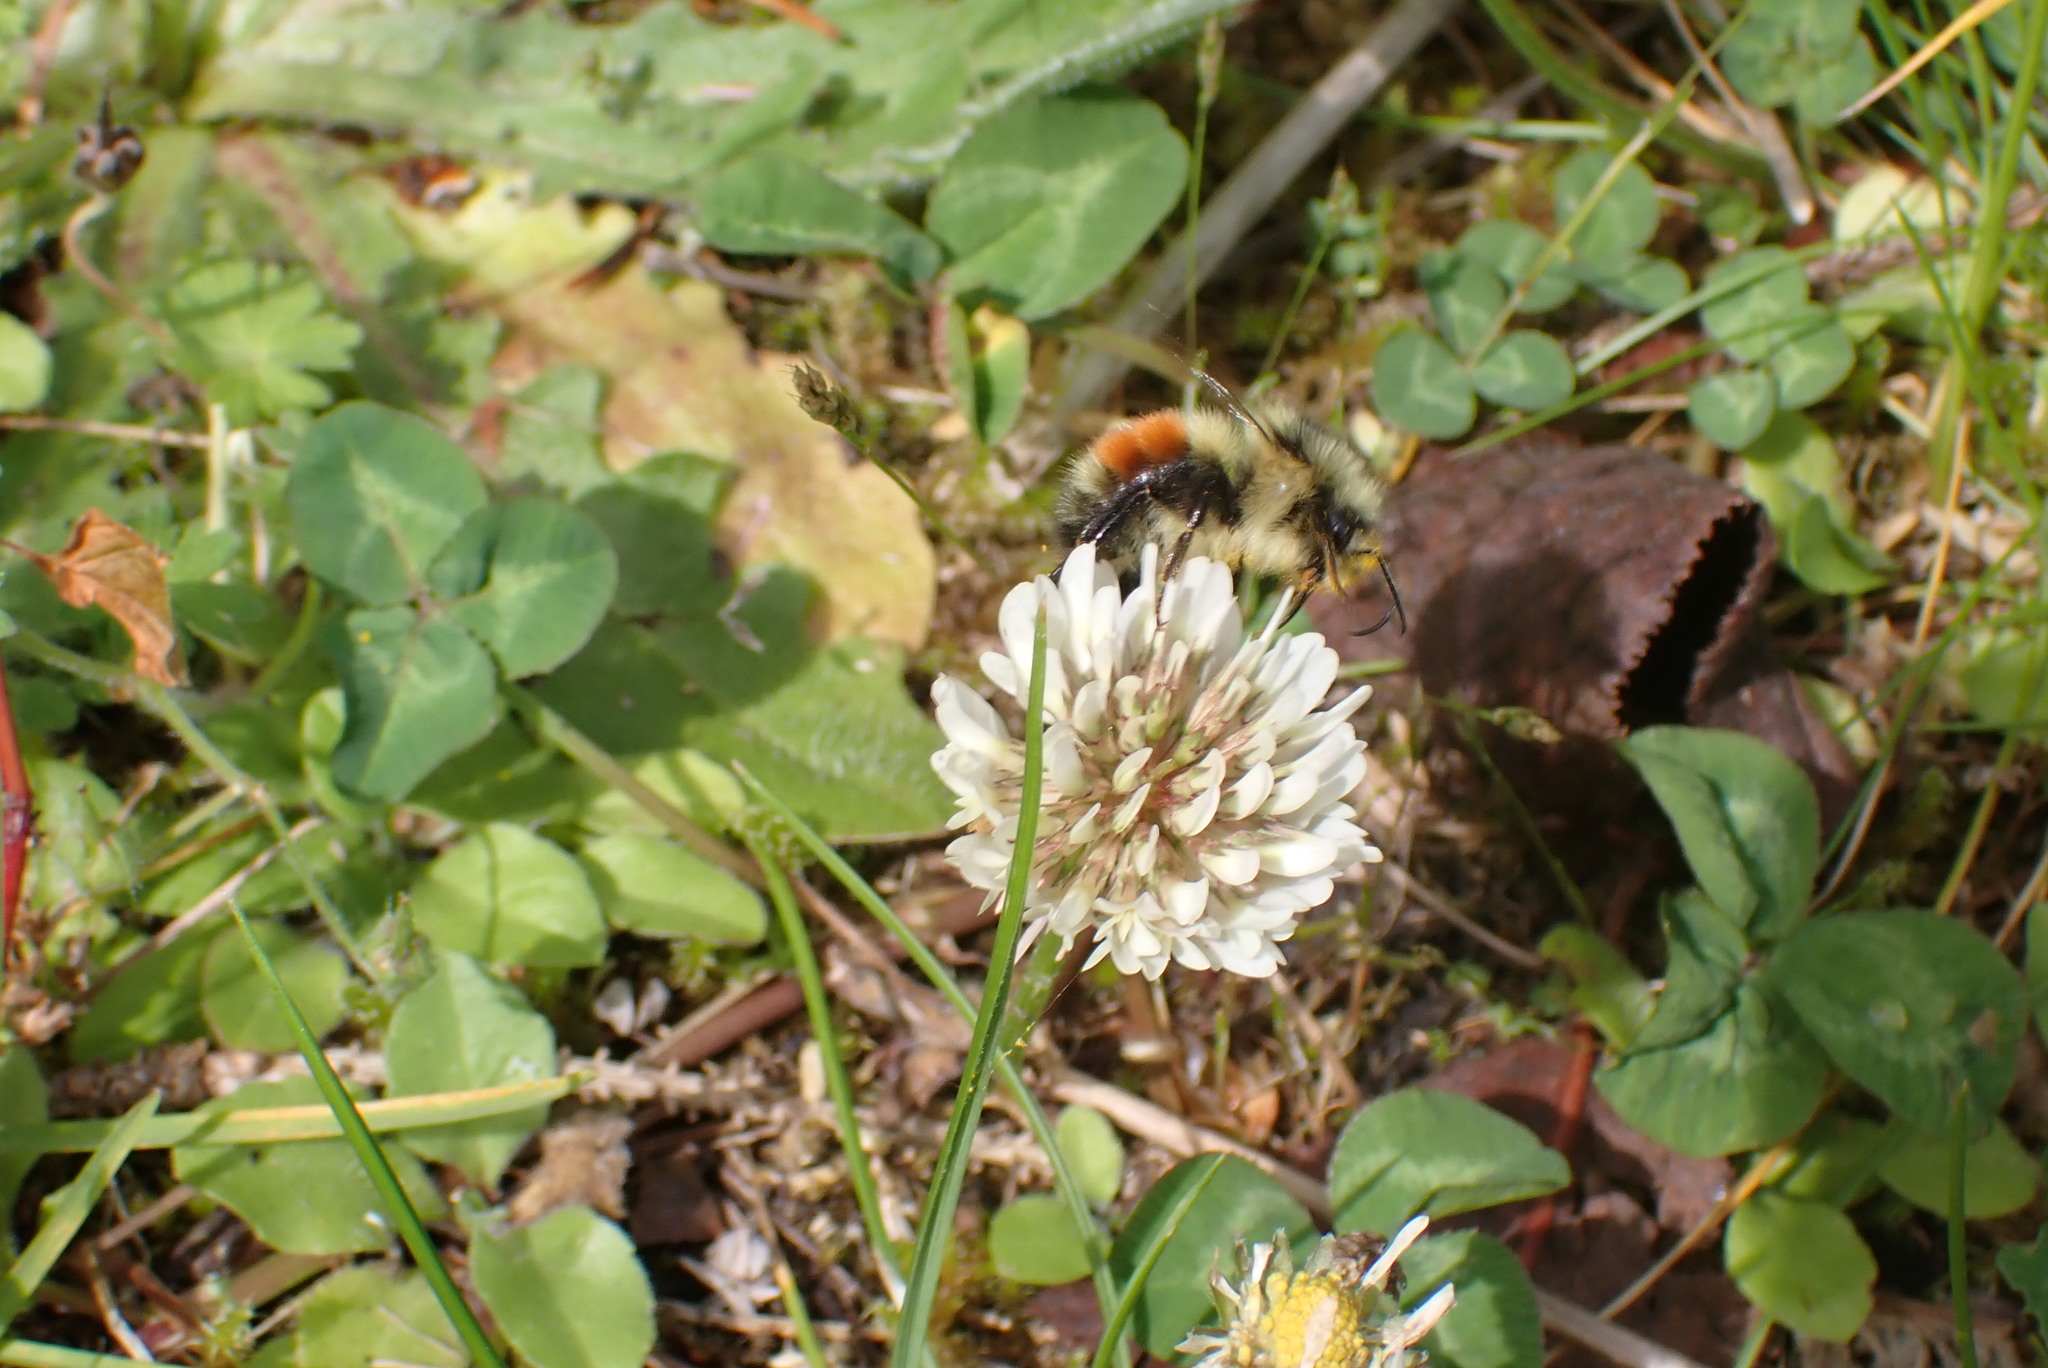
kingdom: Animalia
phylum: Arthropoda
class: Insecta
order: Hymenoptera
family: Apidae
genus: Bombus
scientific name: Bombus melanopygus
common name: Black tail bumble bee
